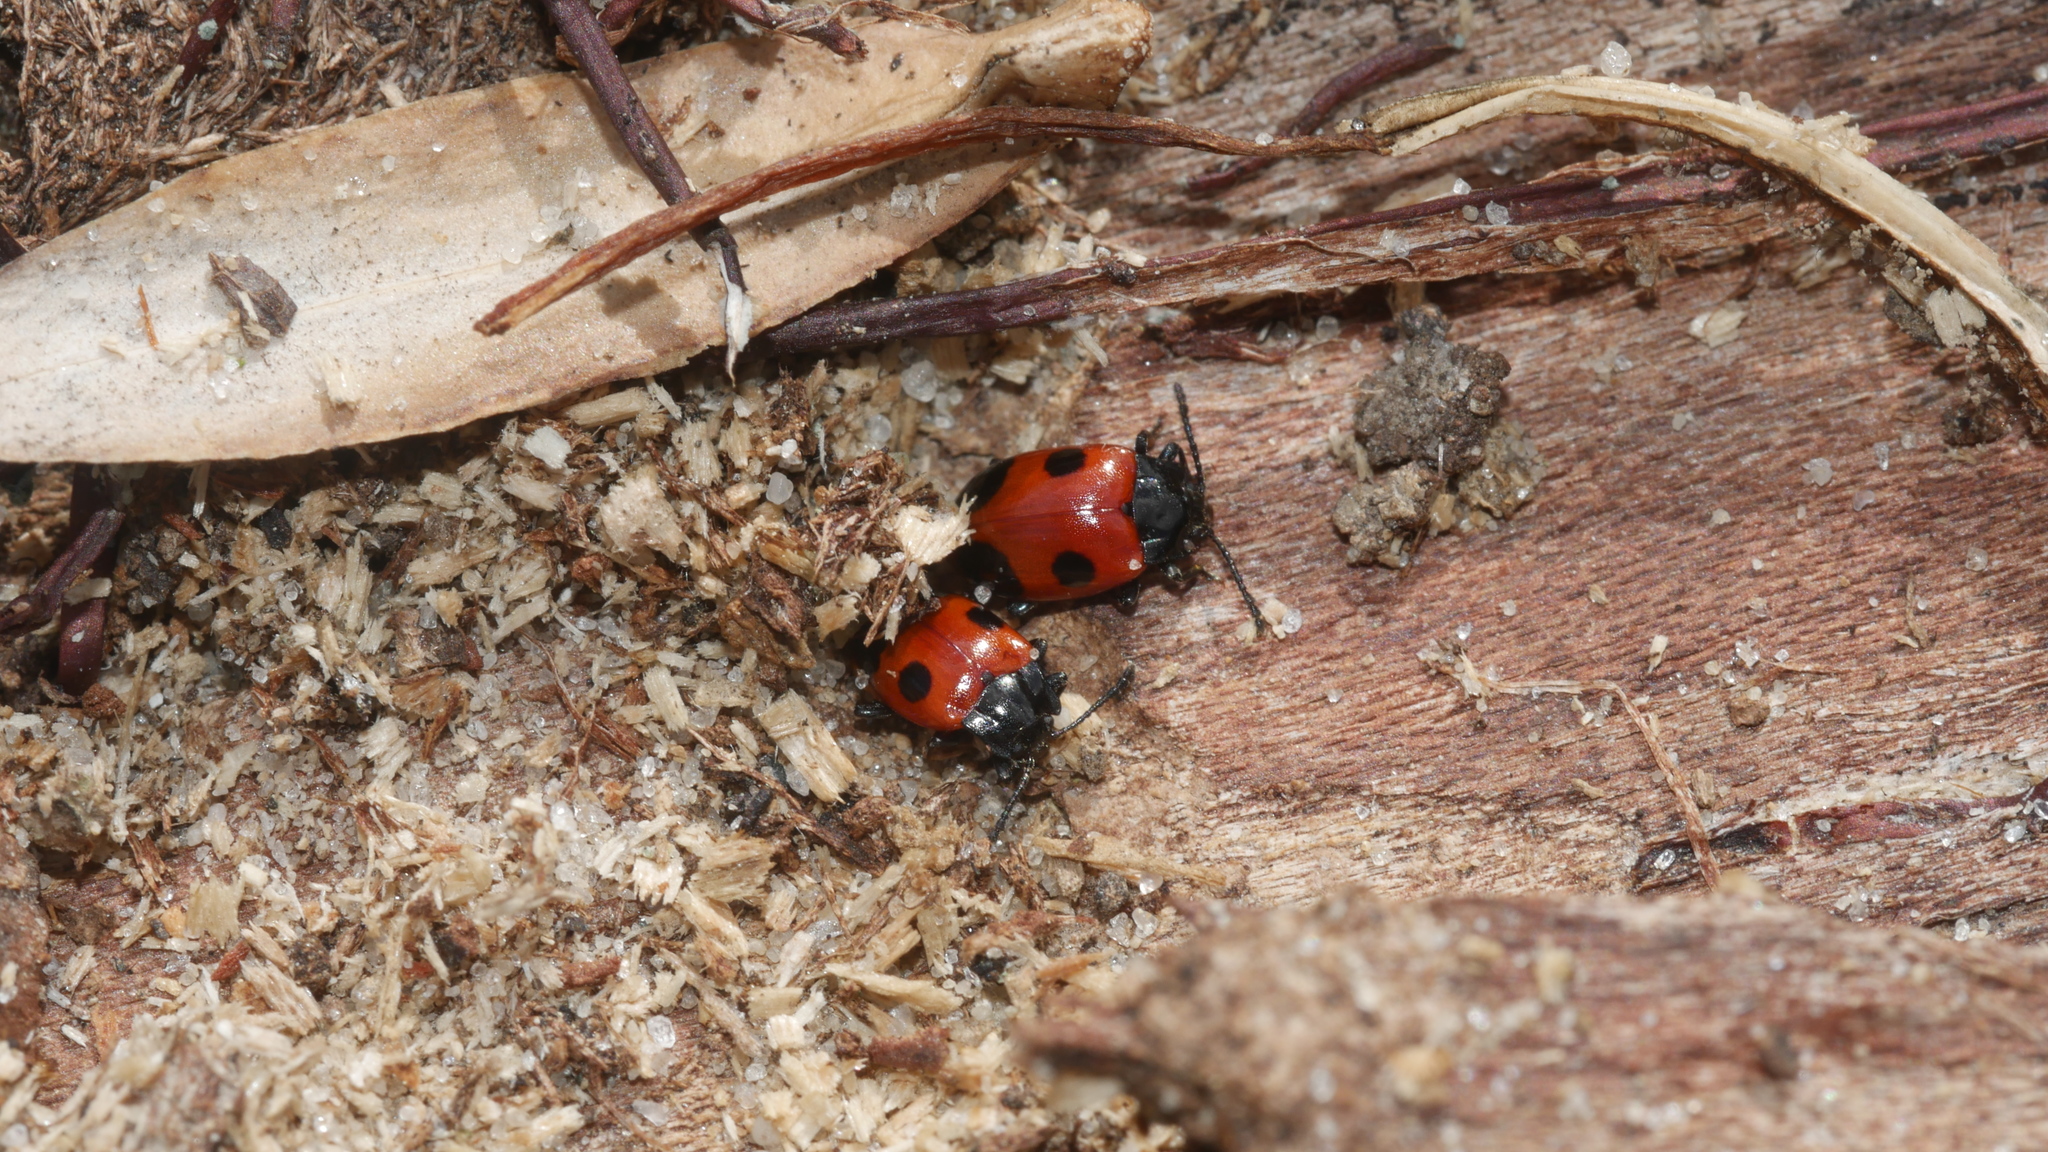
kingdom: Animalia
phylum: Arthropoda
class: Insecta
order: Coleoptera
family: Endomychidae
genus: Endomychus
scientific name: Endomychus biguttatus
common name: Handsome fungus beetle
